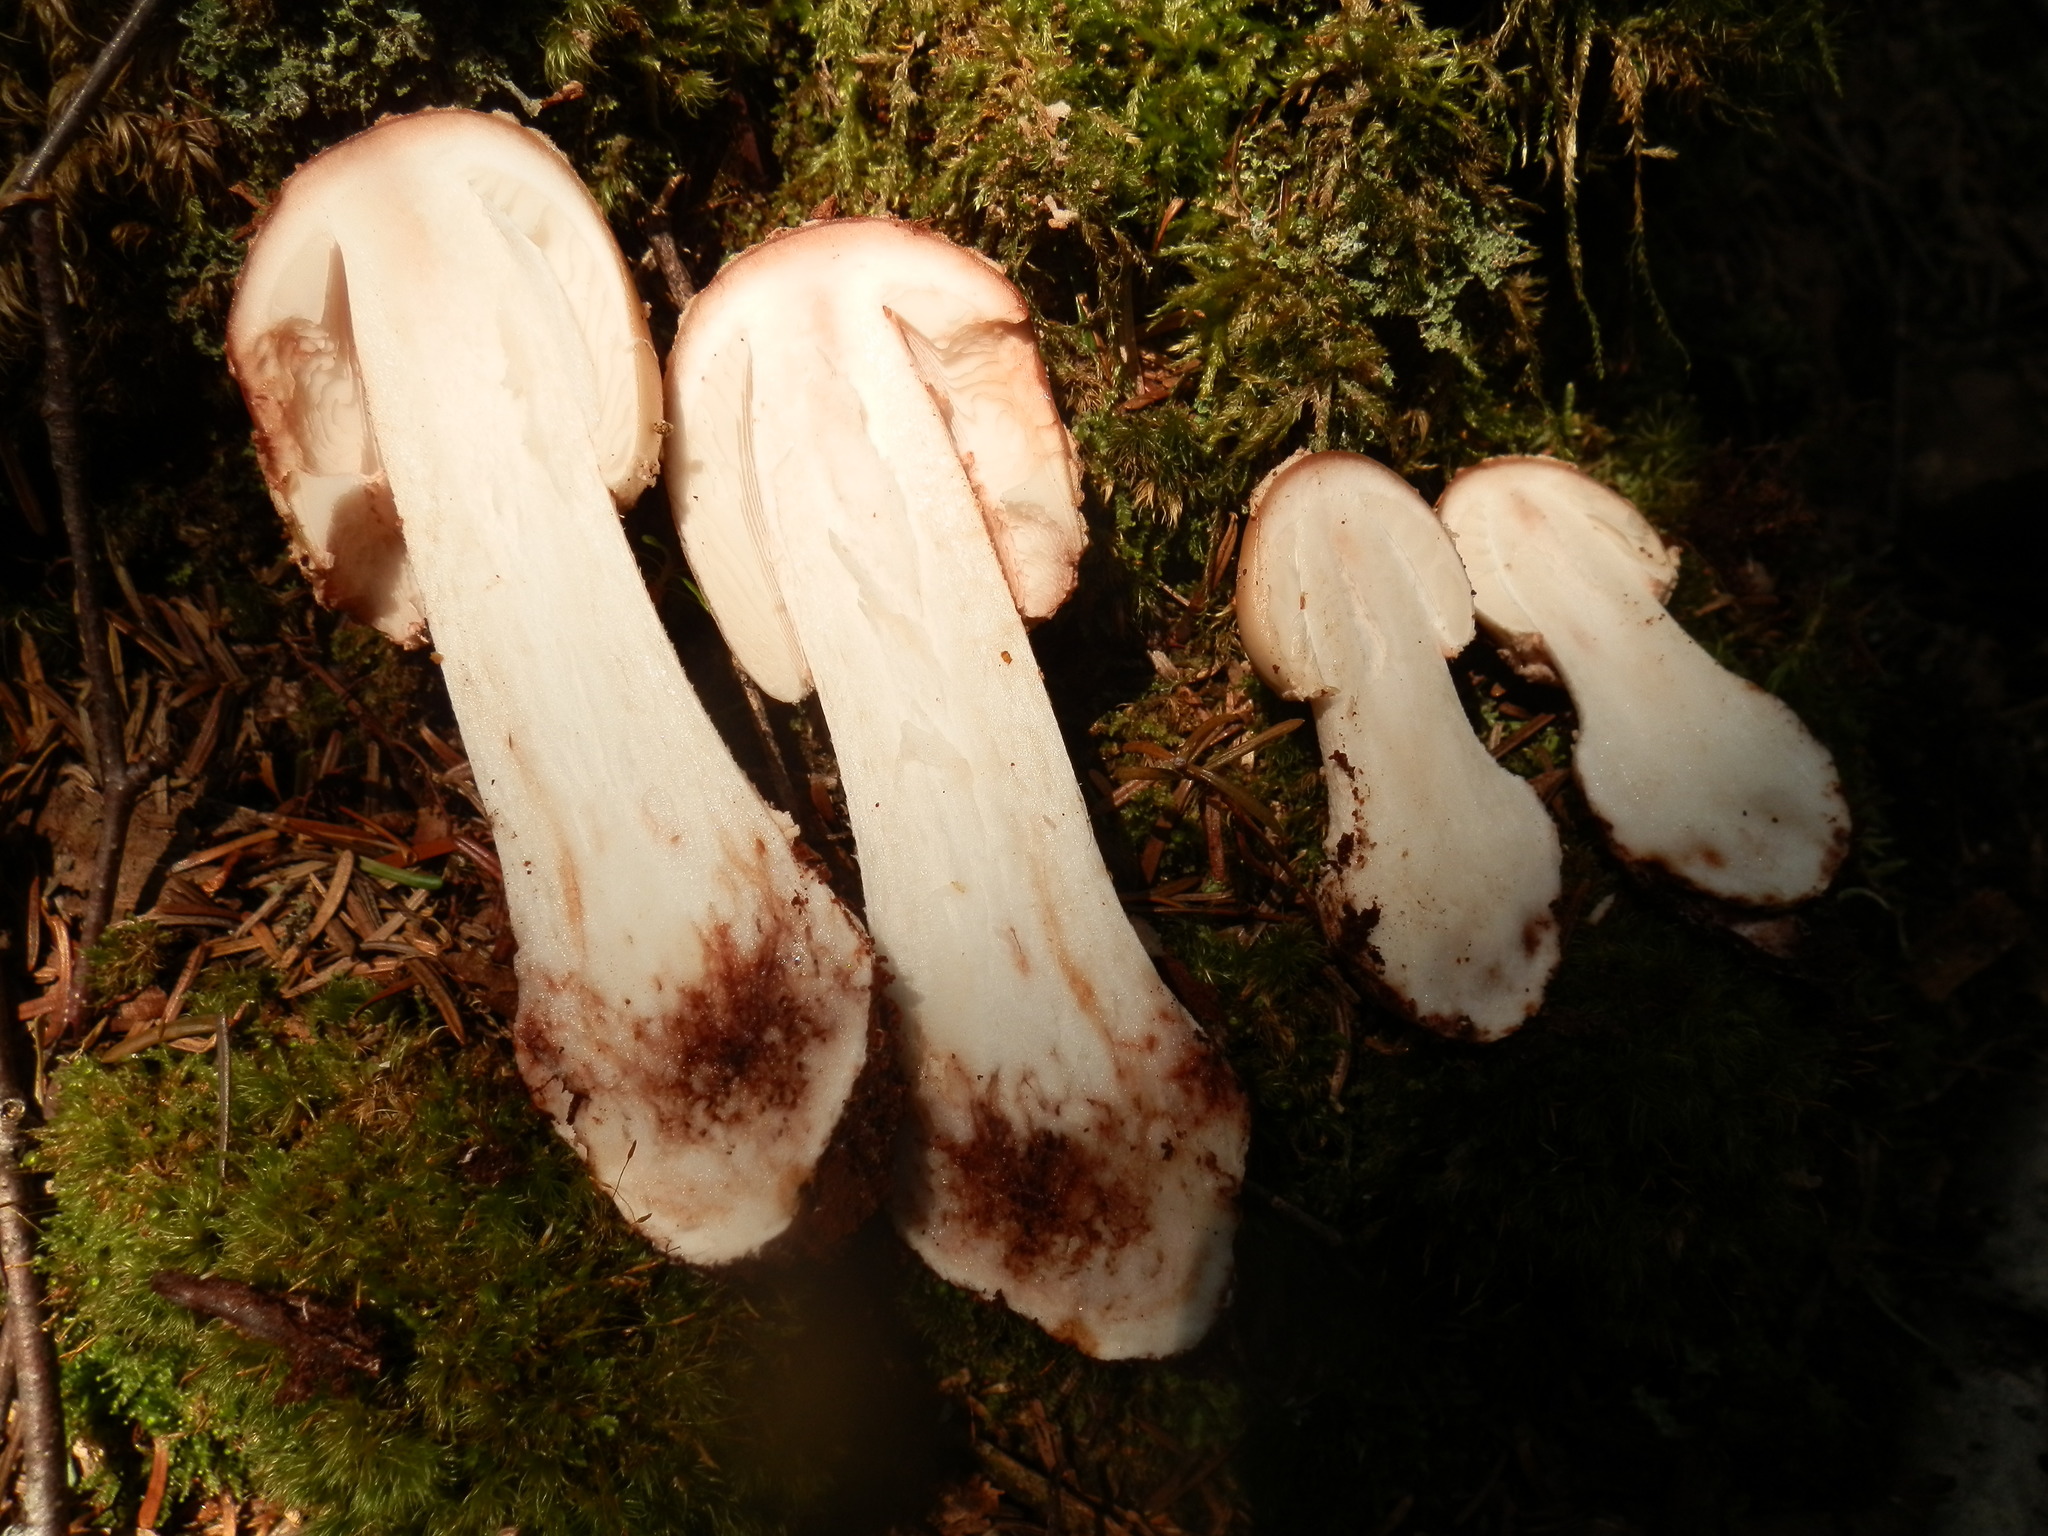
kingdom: Fungi
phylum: Basidiomycota
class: Agaricomycetes
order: Agaricales
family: Amanitaceae
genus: Amanita
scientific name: Amanita rubescens
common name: Blusher
